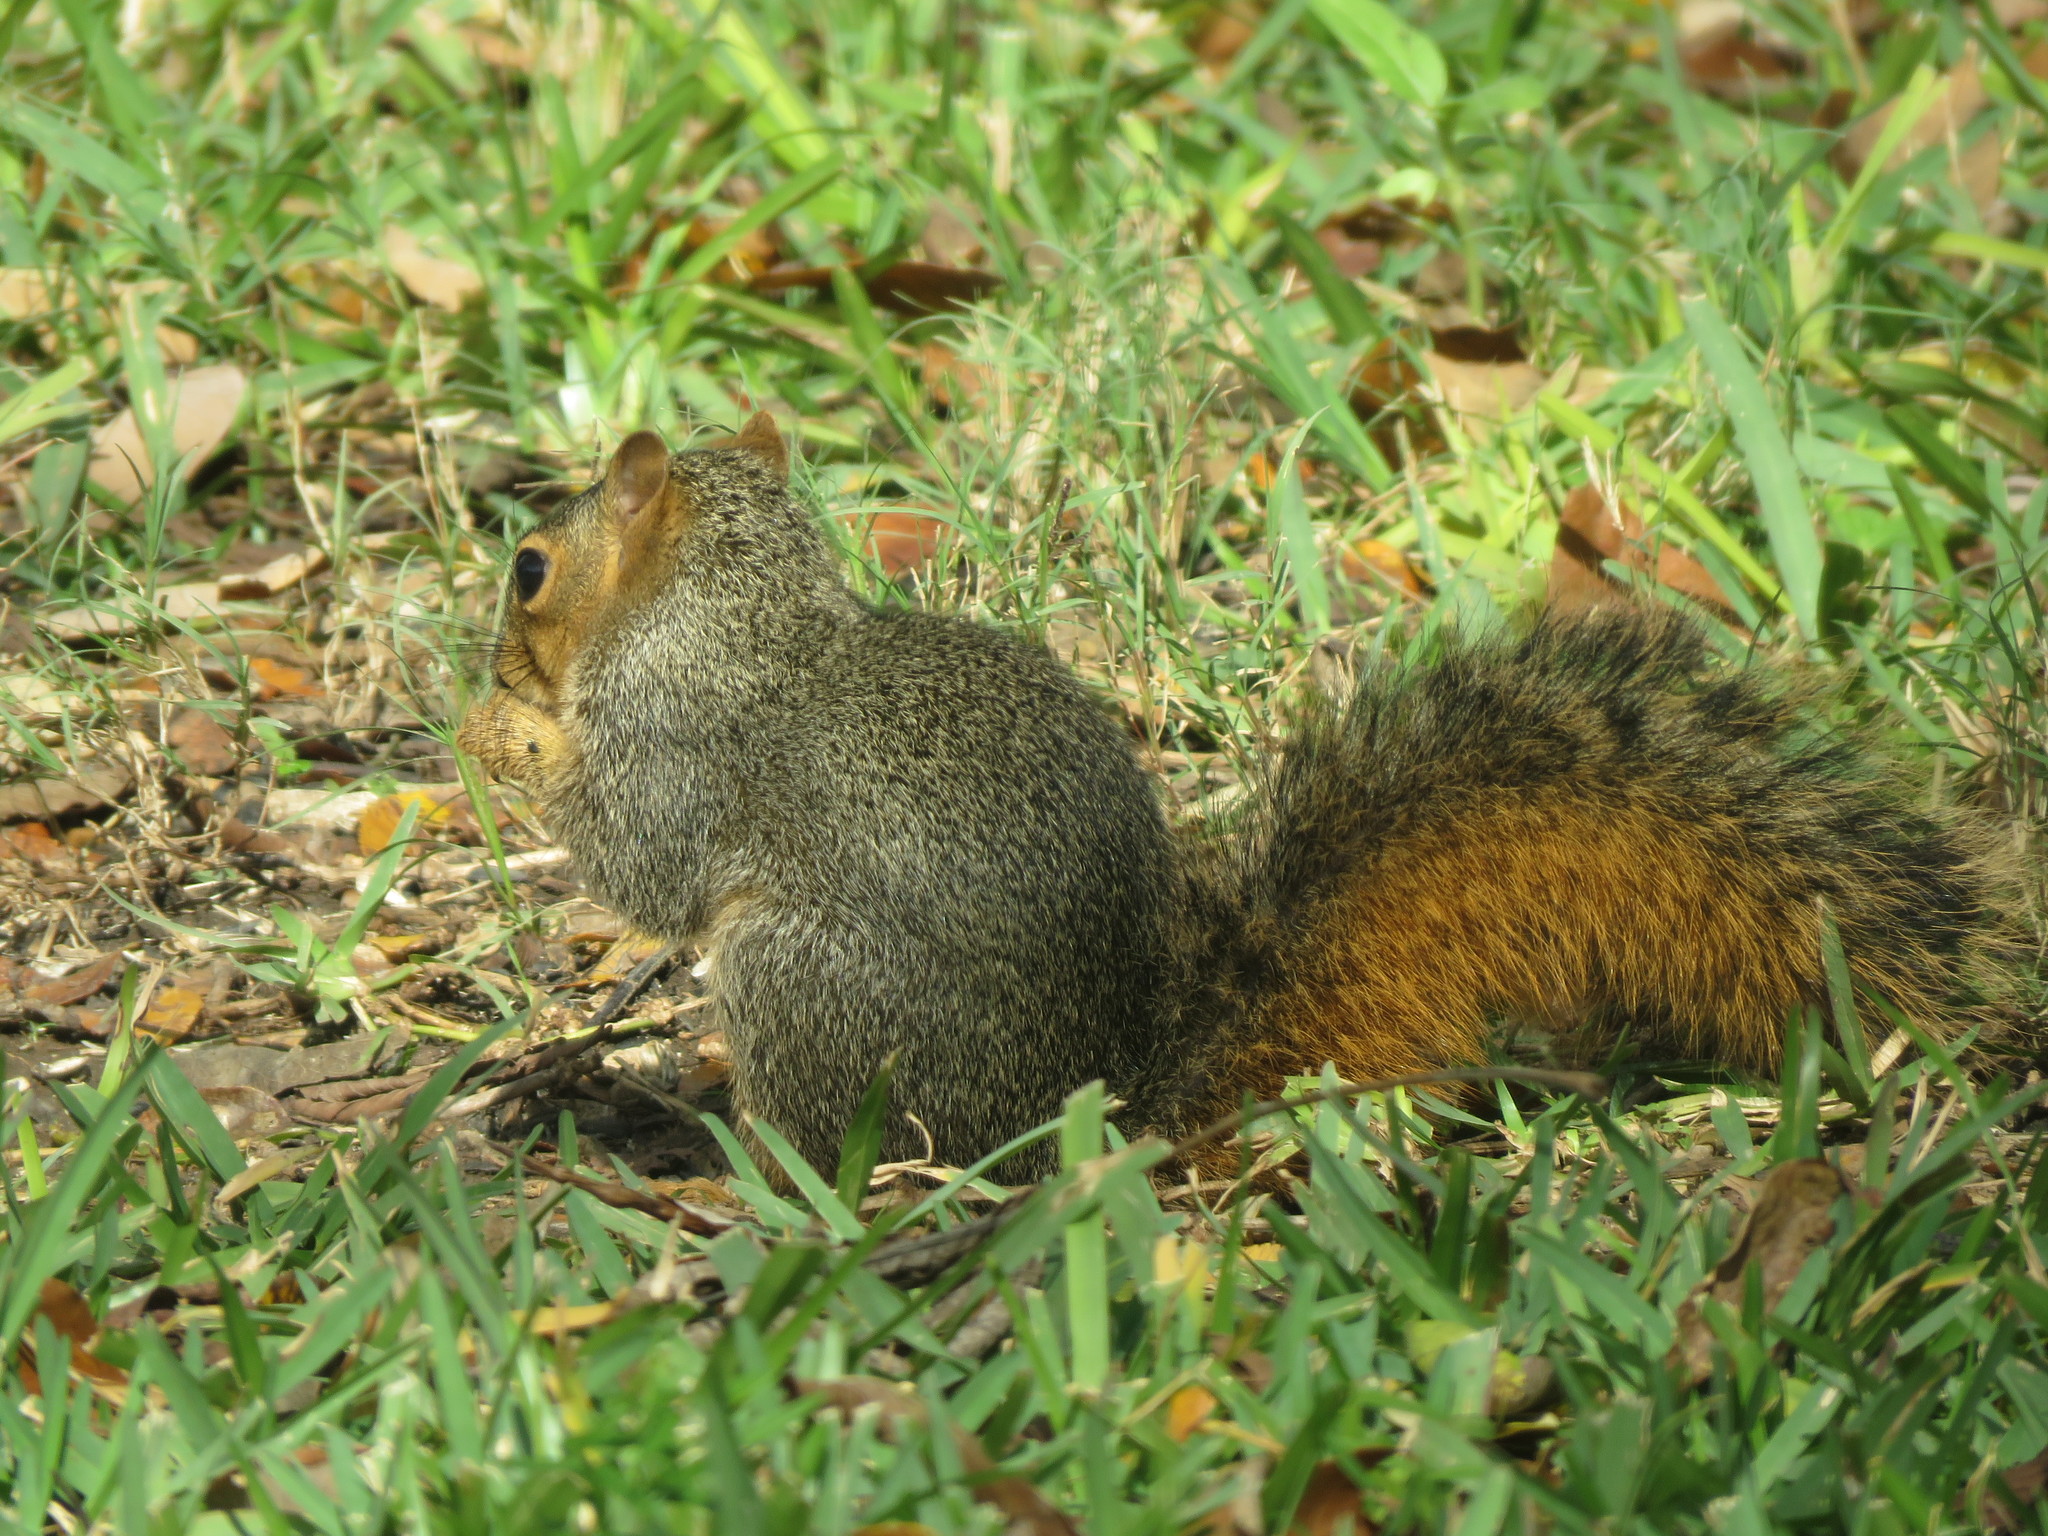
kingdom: Animalia
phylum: Chordata
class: Mammalia
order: Rodentia
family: Sciuridae
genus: Sciurus
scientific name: Sciurus niger
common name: Fox squirrel
